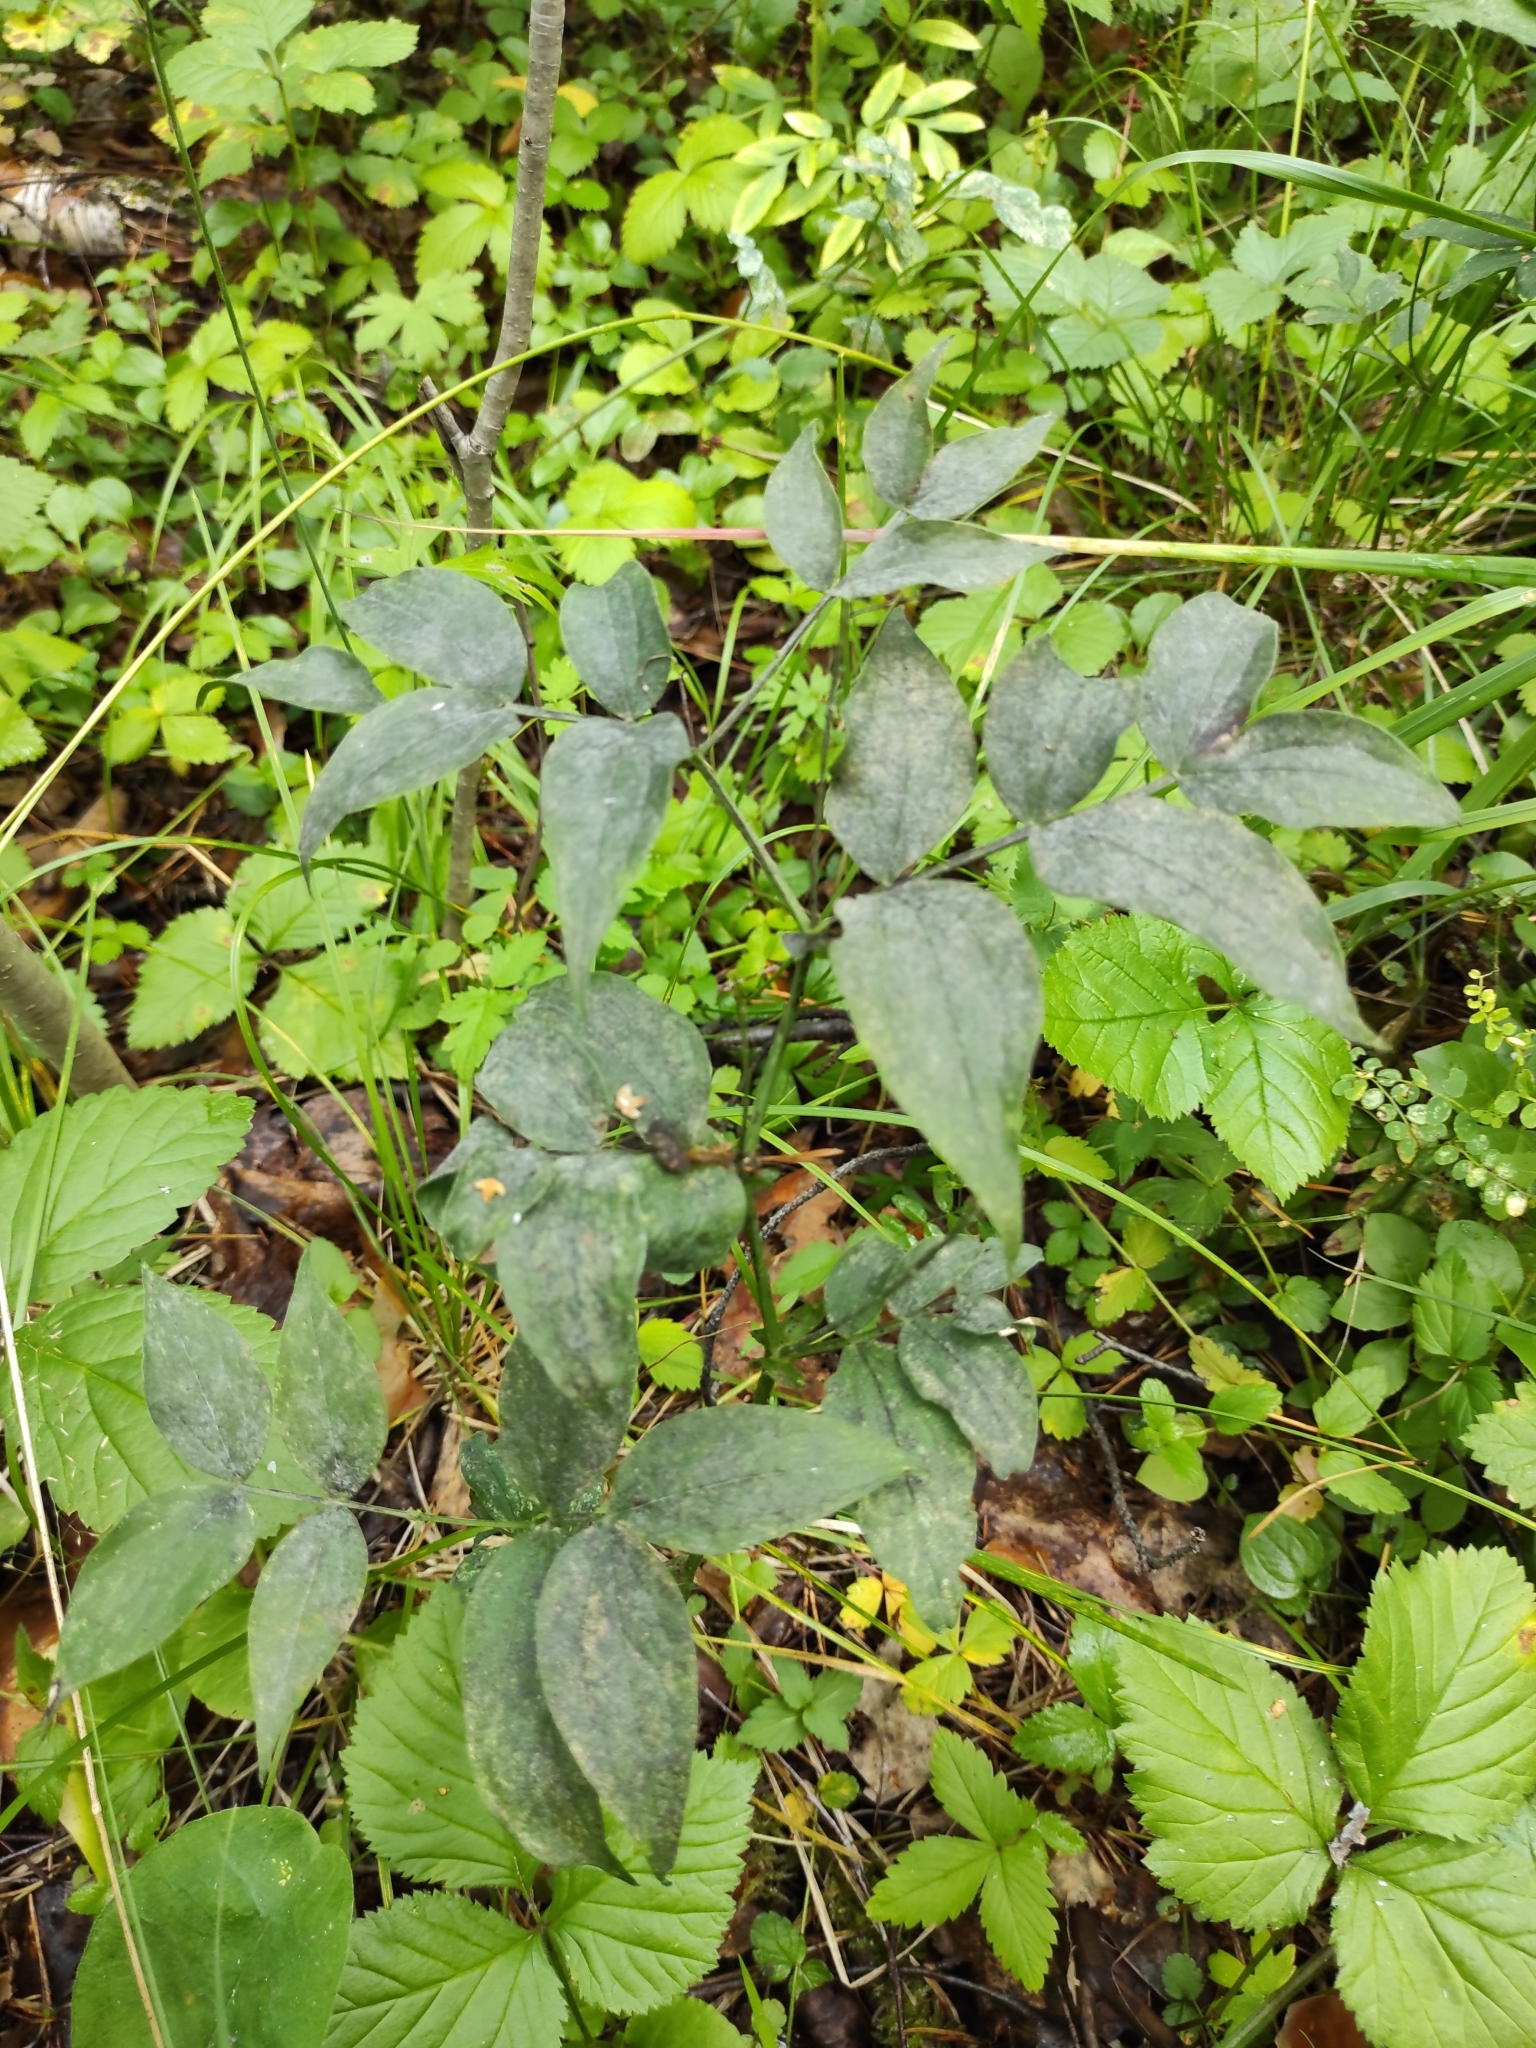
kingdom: Plantae
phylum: Tracheophyta
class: Magnoliopsida
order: Fabales
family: Fabaceae
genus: Lathyrus
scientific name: Lathyrus vernus
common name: Spring pea
